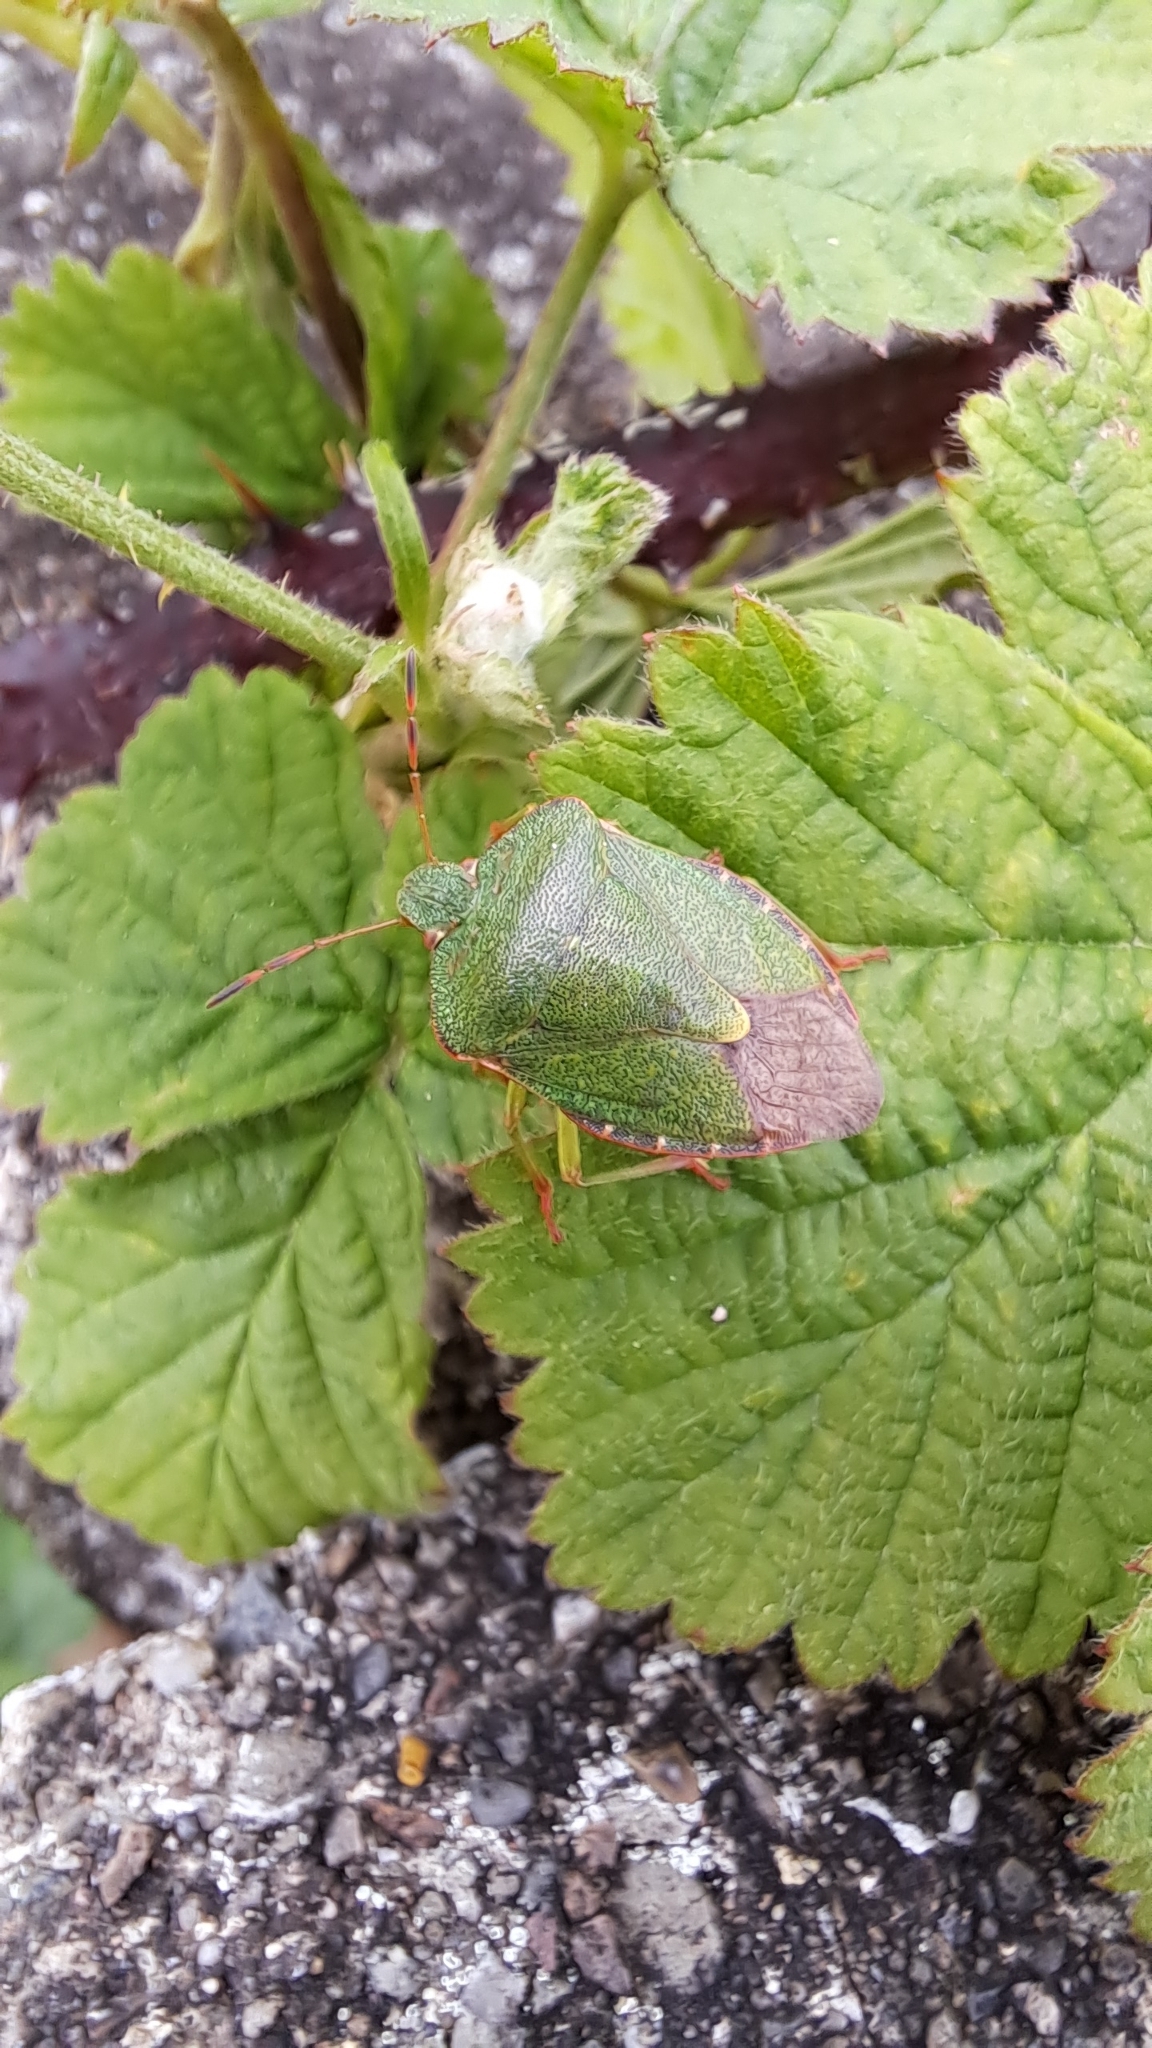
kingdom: Animalia
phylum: Arthropoda
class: Insecta
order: Hemiptera
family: Pentatomidae
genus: Palomena
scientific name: Palomena prasina
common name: Green shieldbug
